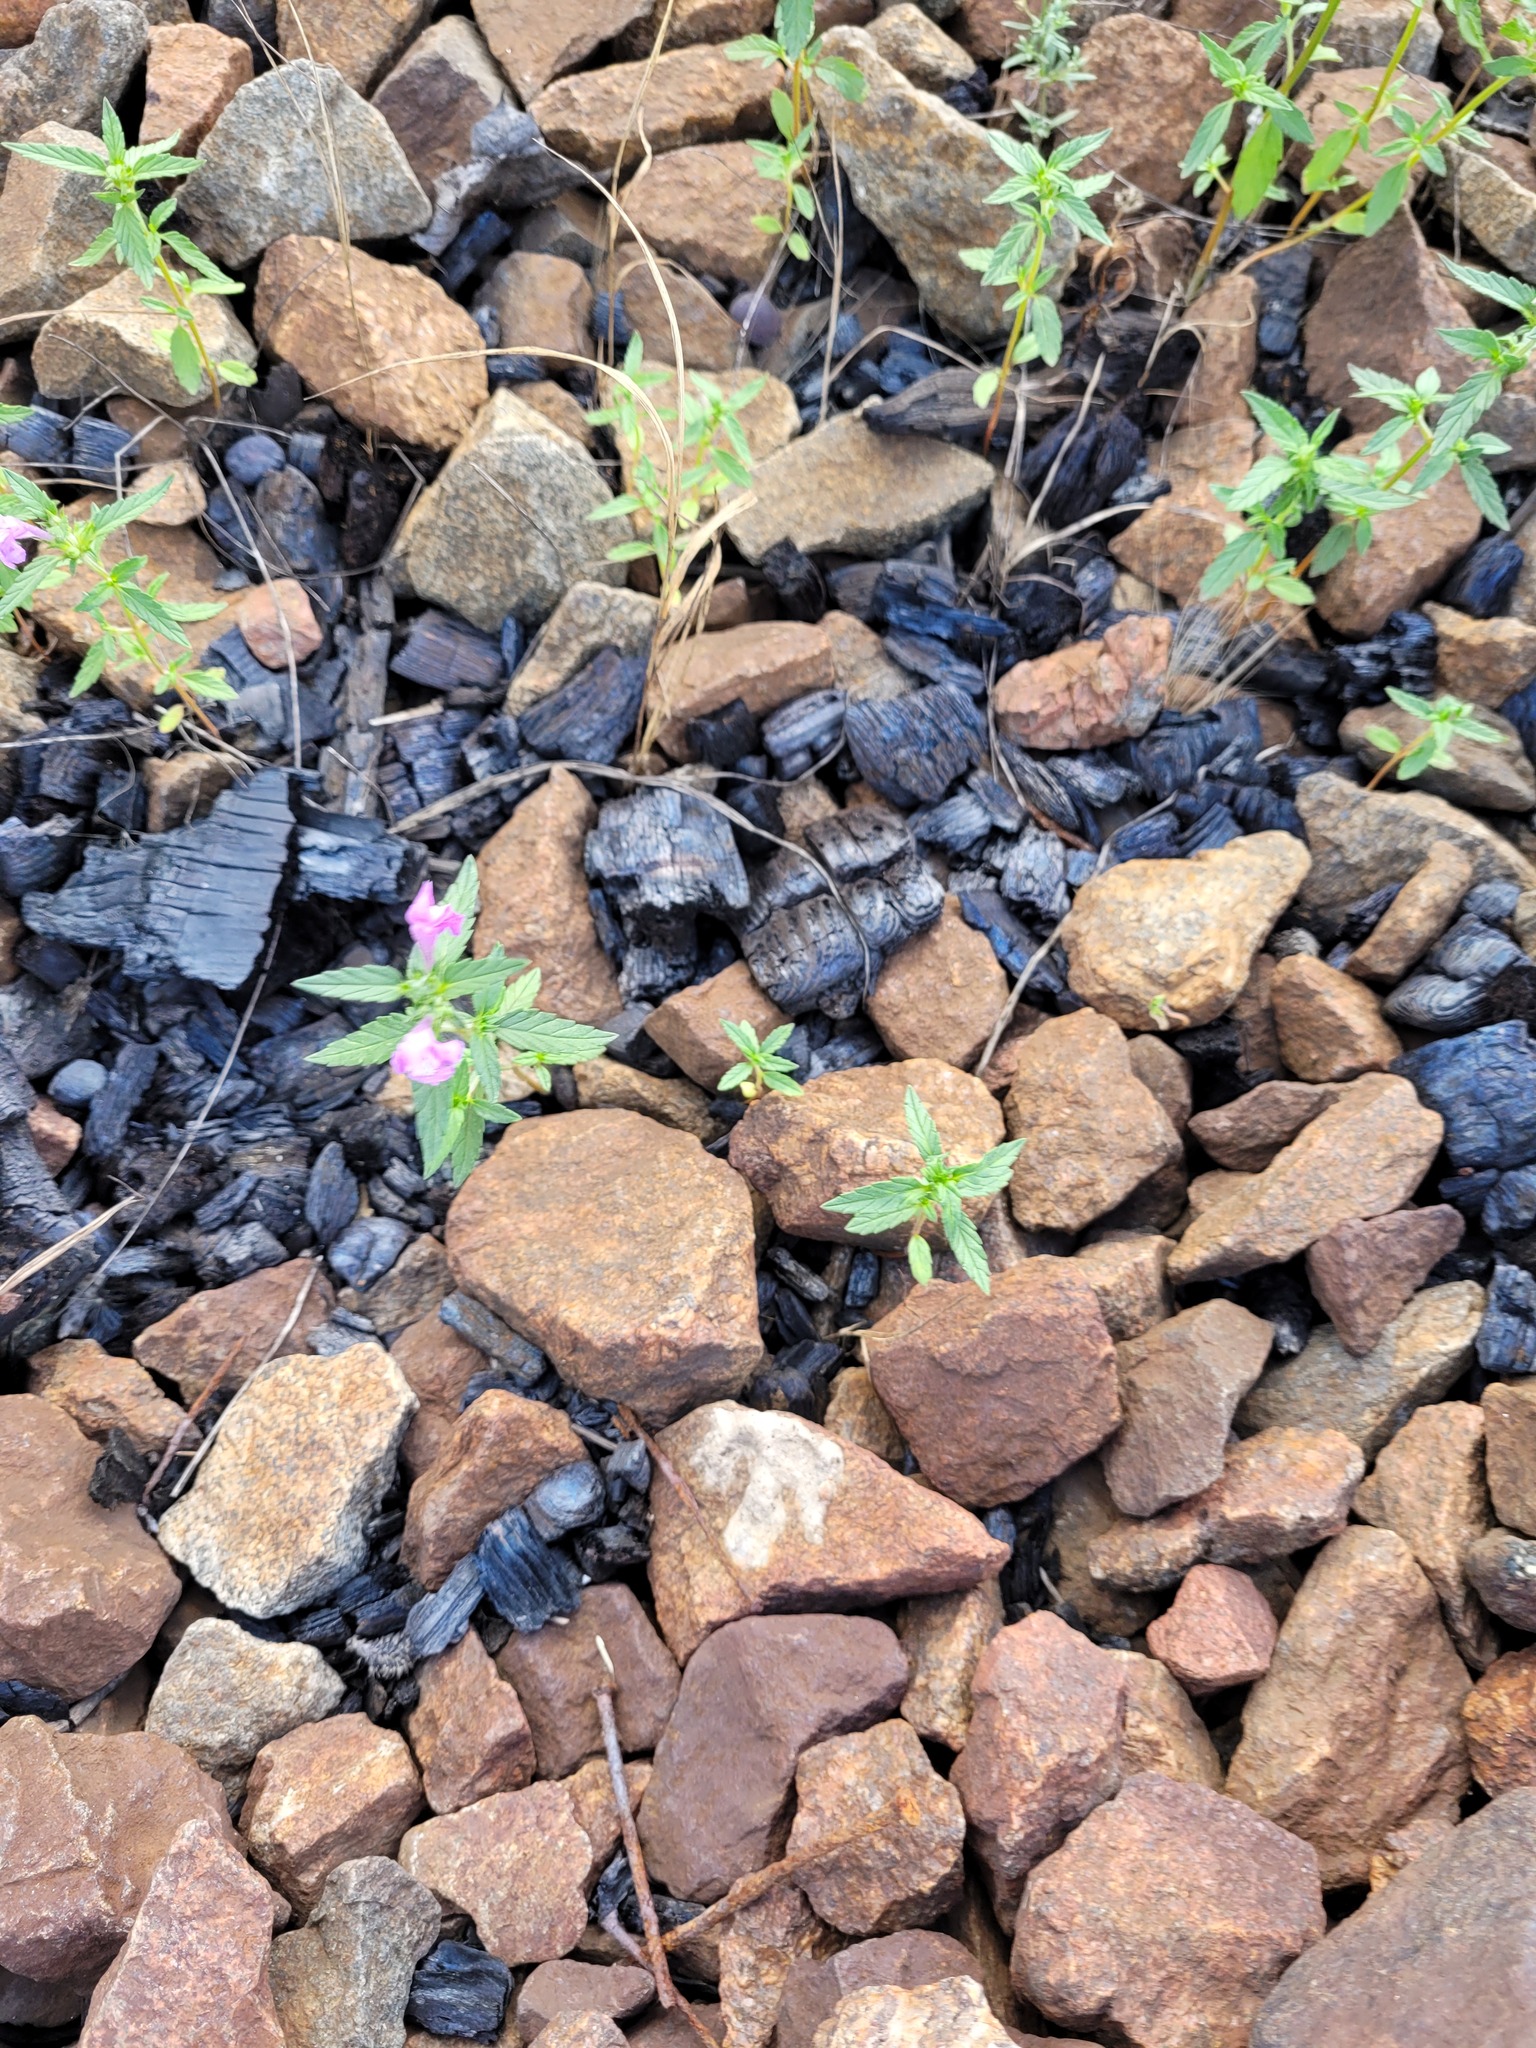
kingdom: Plantae
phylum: Tracheophyta
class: Magnoliopsida
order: Lamiales
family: Lamiaceae
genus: Galeopsis
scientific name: Galeopsis ladanum
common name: Broad-leaved hemp-nettle
